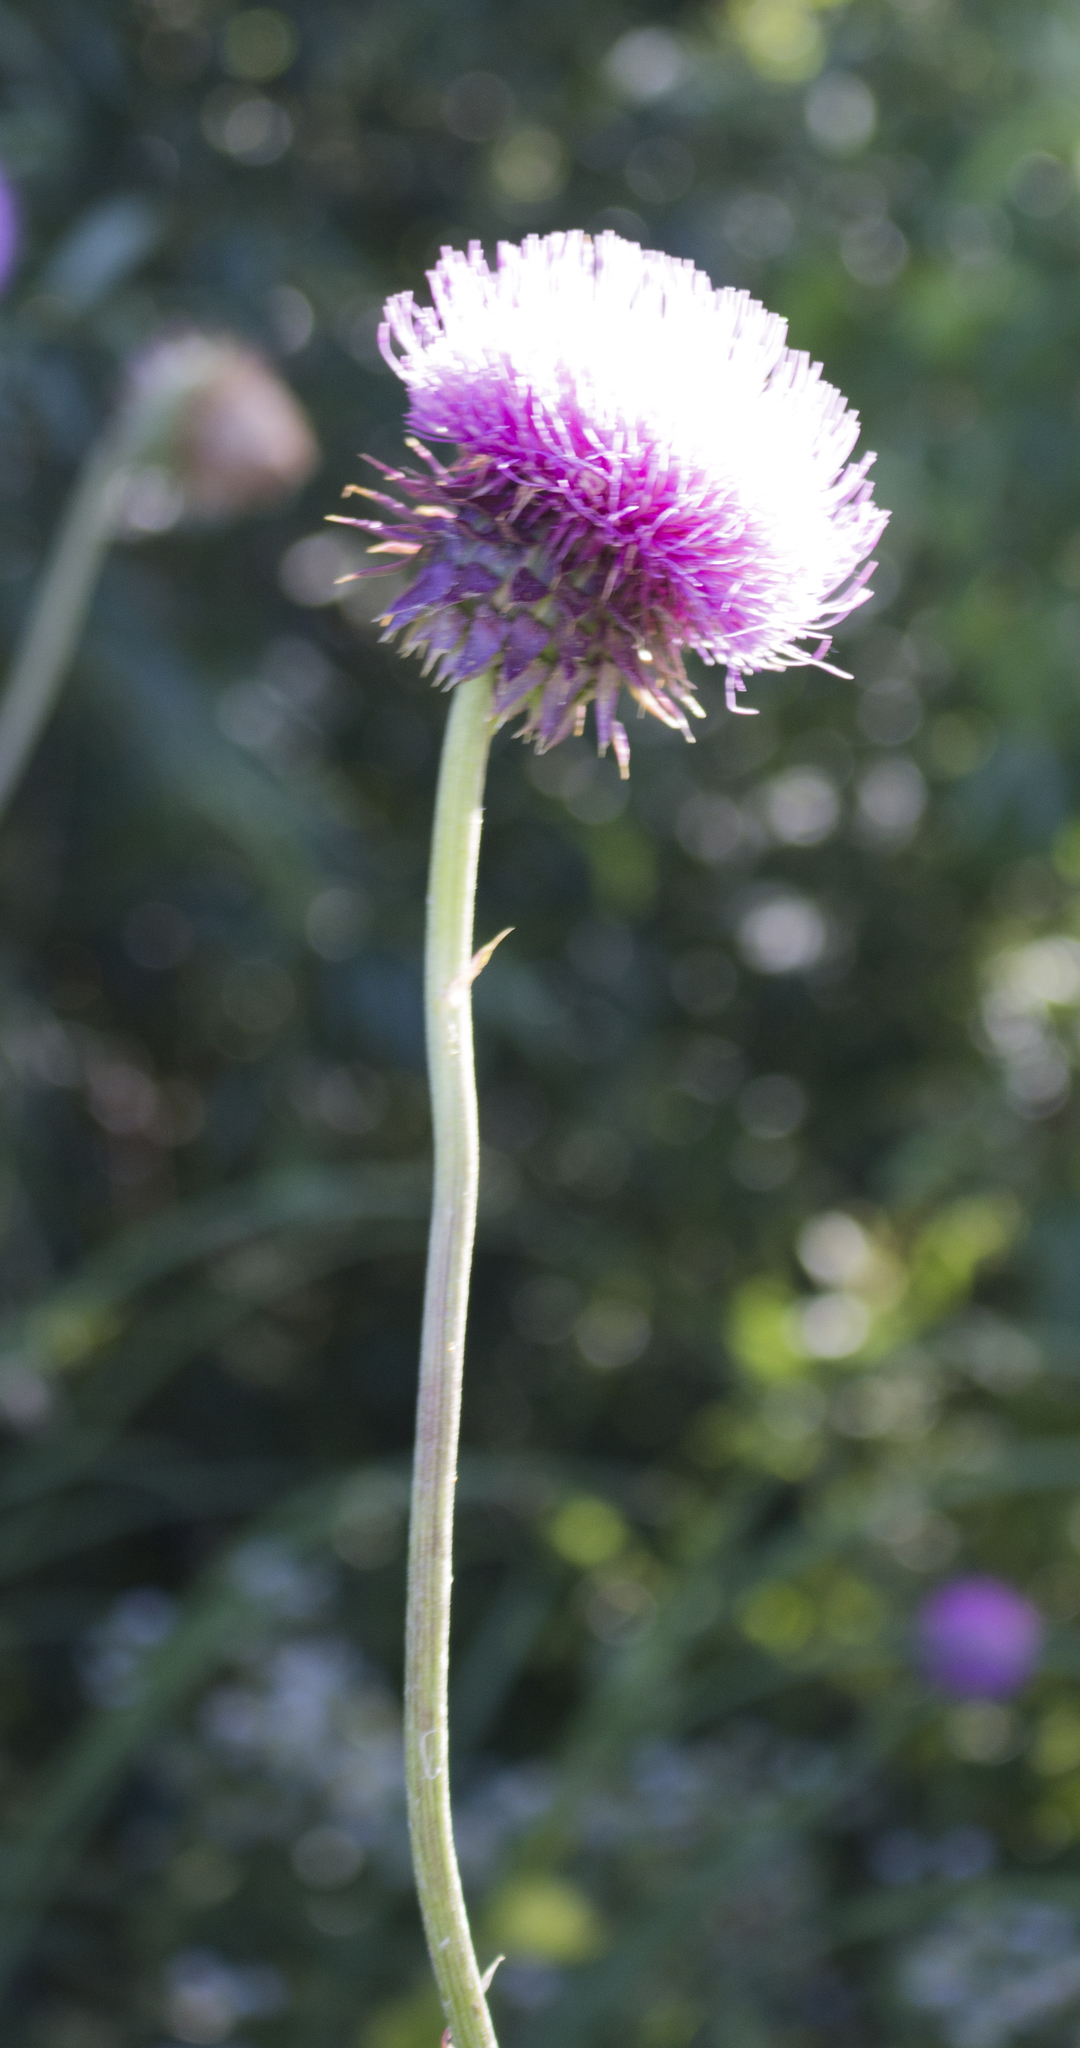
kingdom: Plantae
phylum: Tracheophyta
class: Magnoliopsida
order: Asterales
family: Asteraceae
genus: Carduus
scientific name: Carduus nutans
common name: Musk thistle
